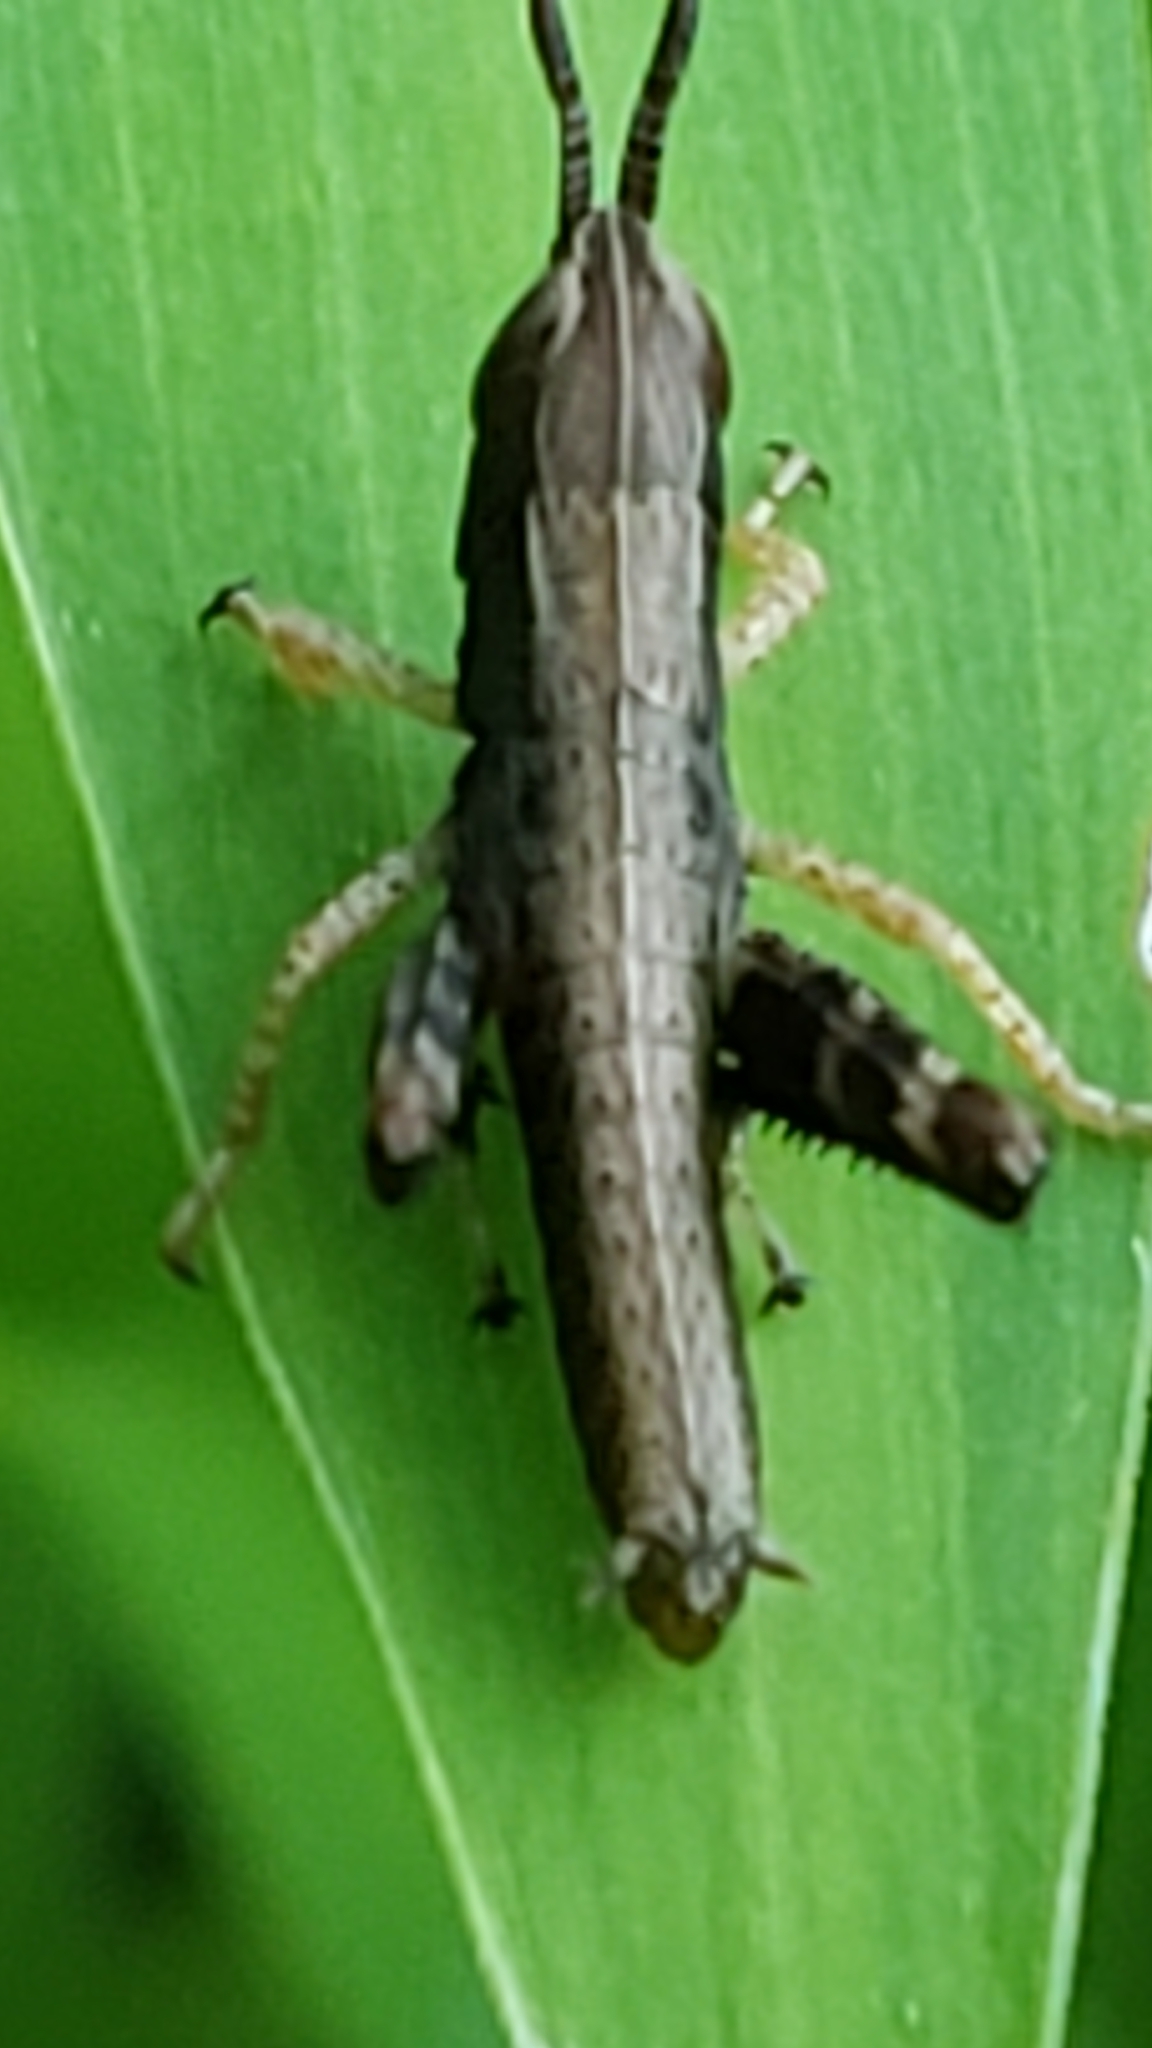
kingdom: Animalia
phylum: Arthropoda
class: Insecta
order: Orthoptera
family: Acrididae
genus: Dichromorpha
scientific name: Dichromorpha viridis
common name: Short-winged green grasshopper
